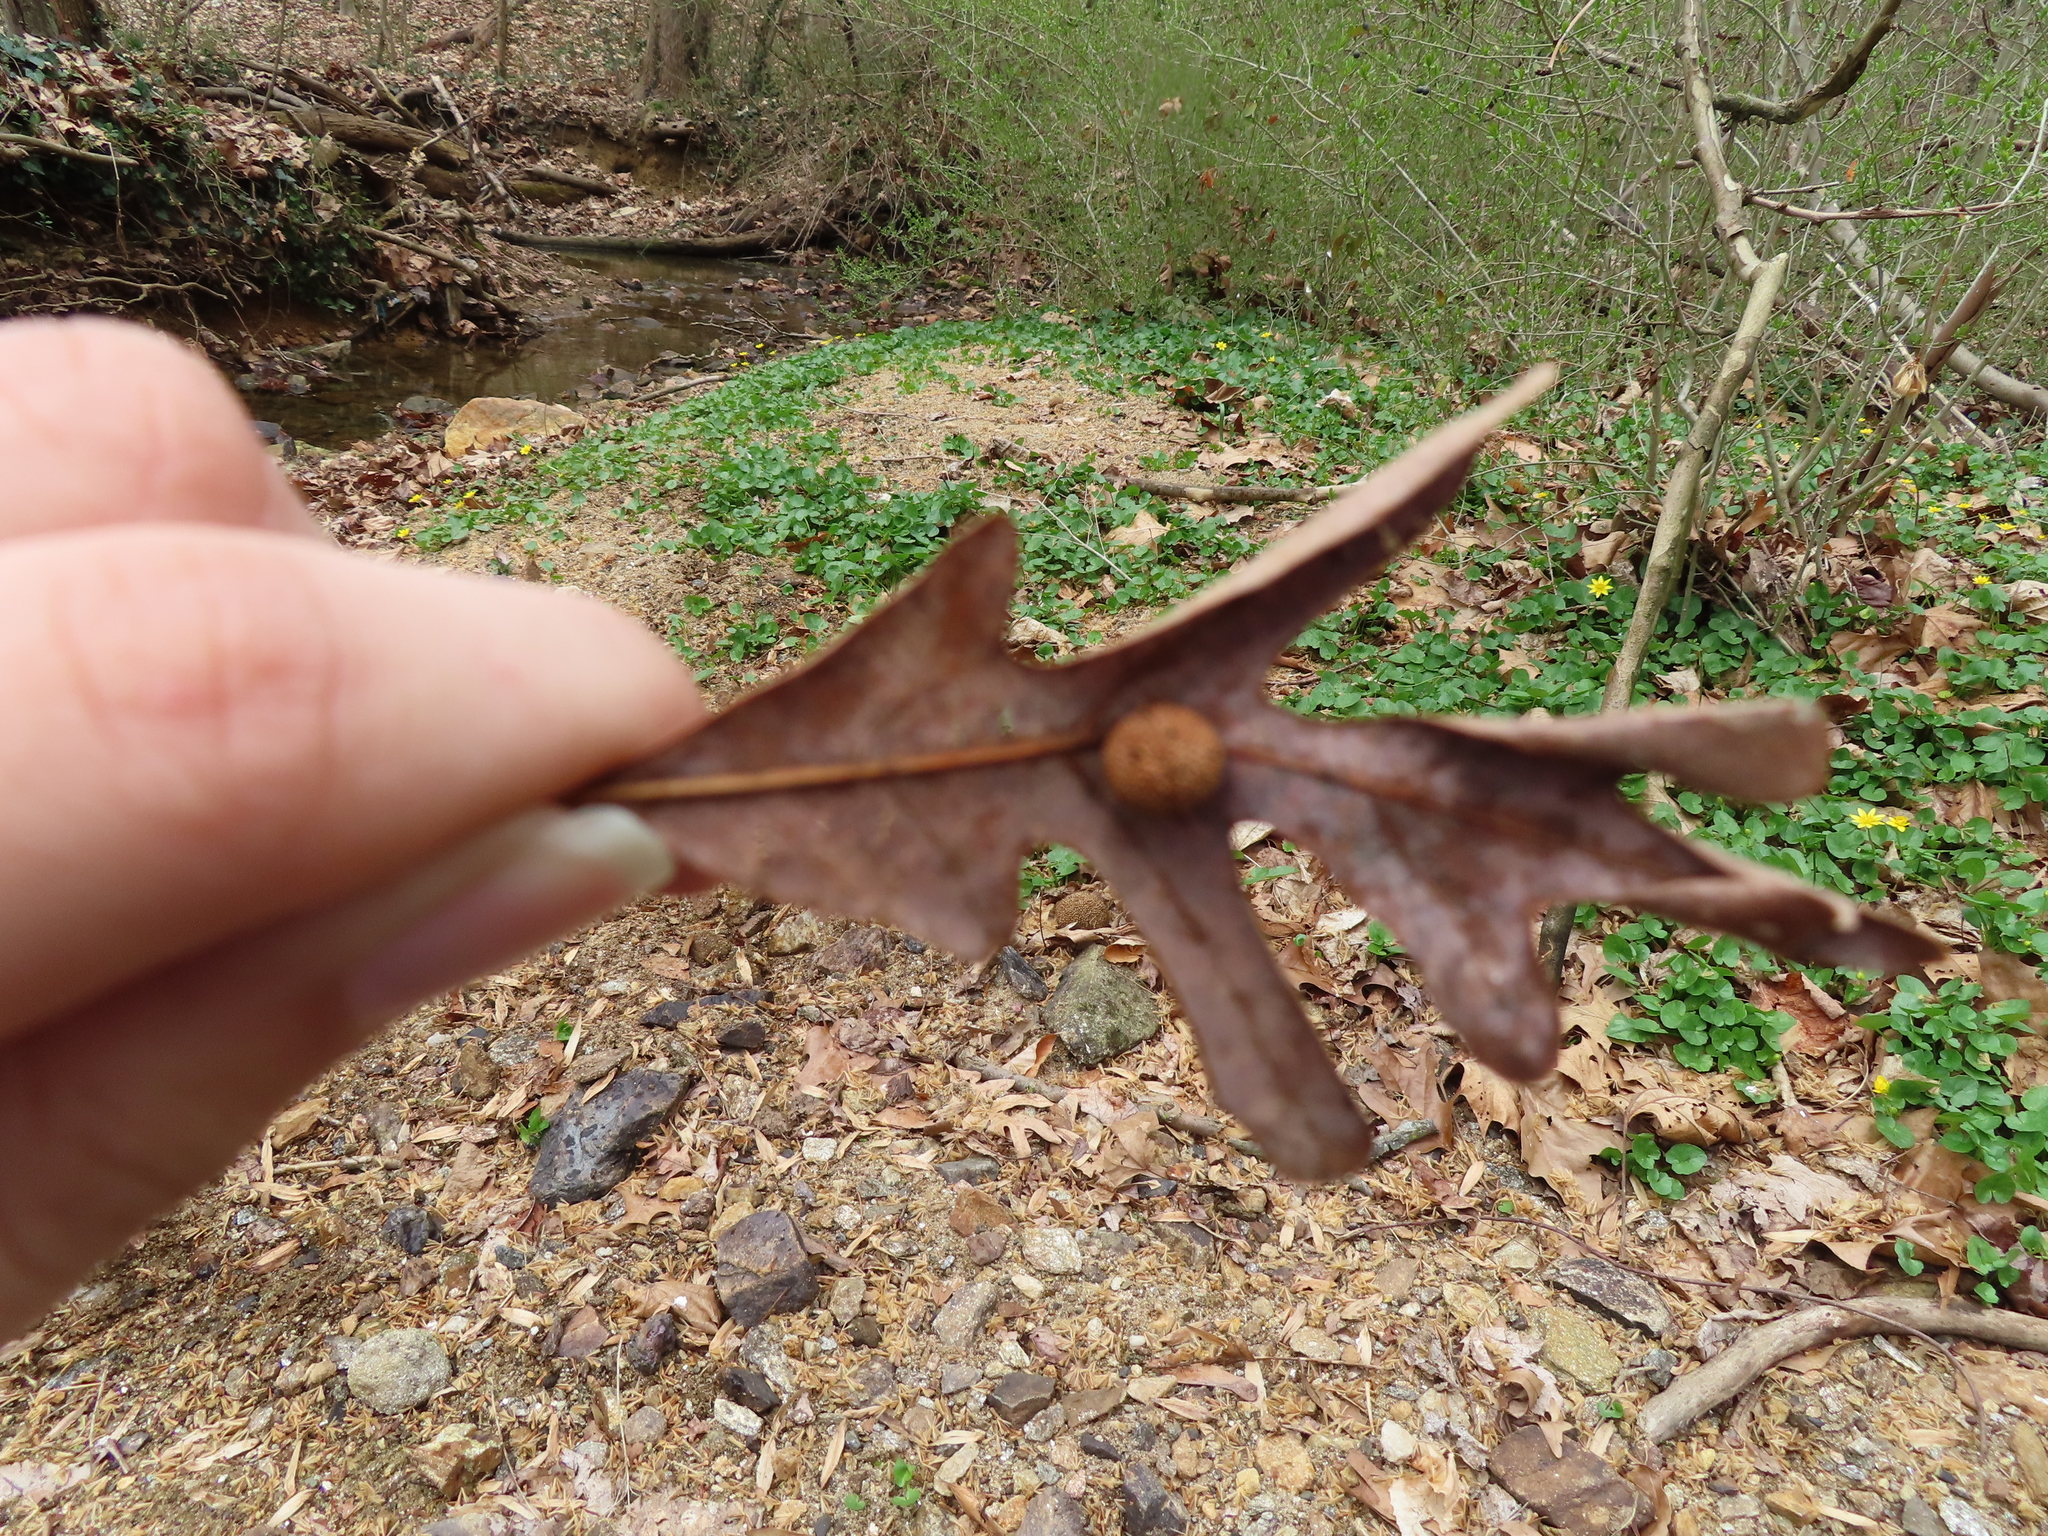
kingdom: Animalia
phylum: Arthropoda
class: Insecta
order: Hymenoptera
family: Cynipidae
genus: Acraspis
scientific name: Acraspis
